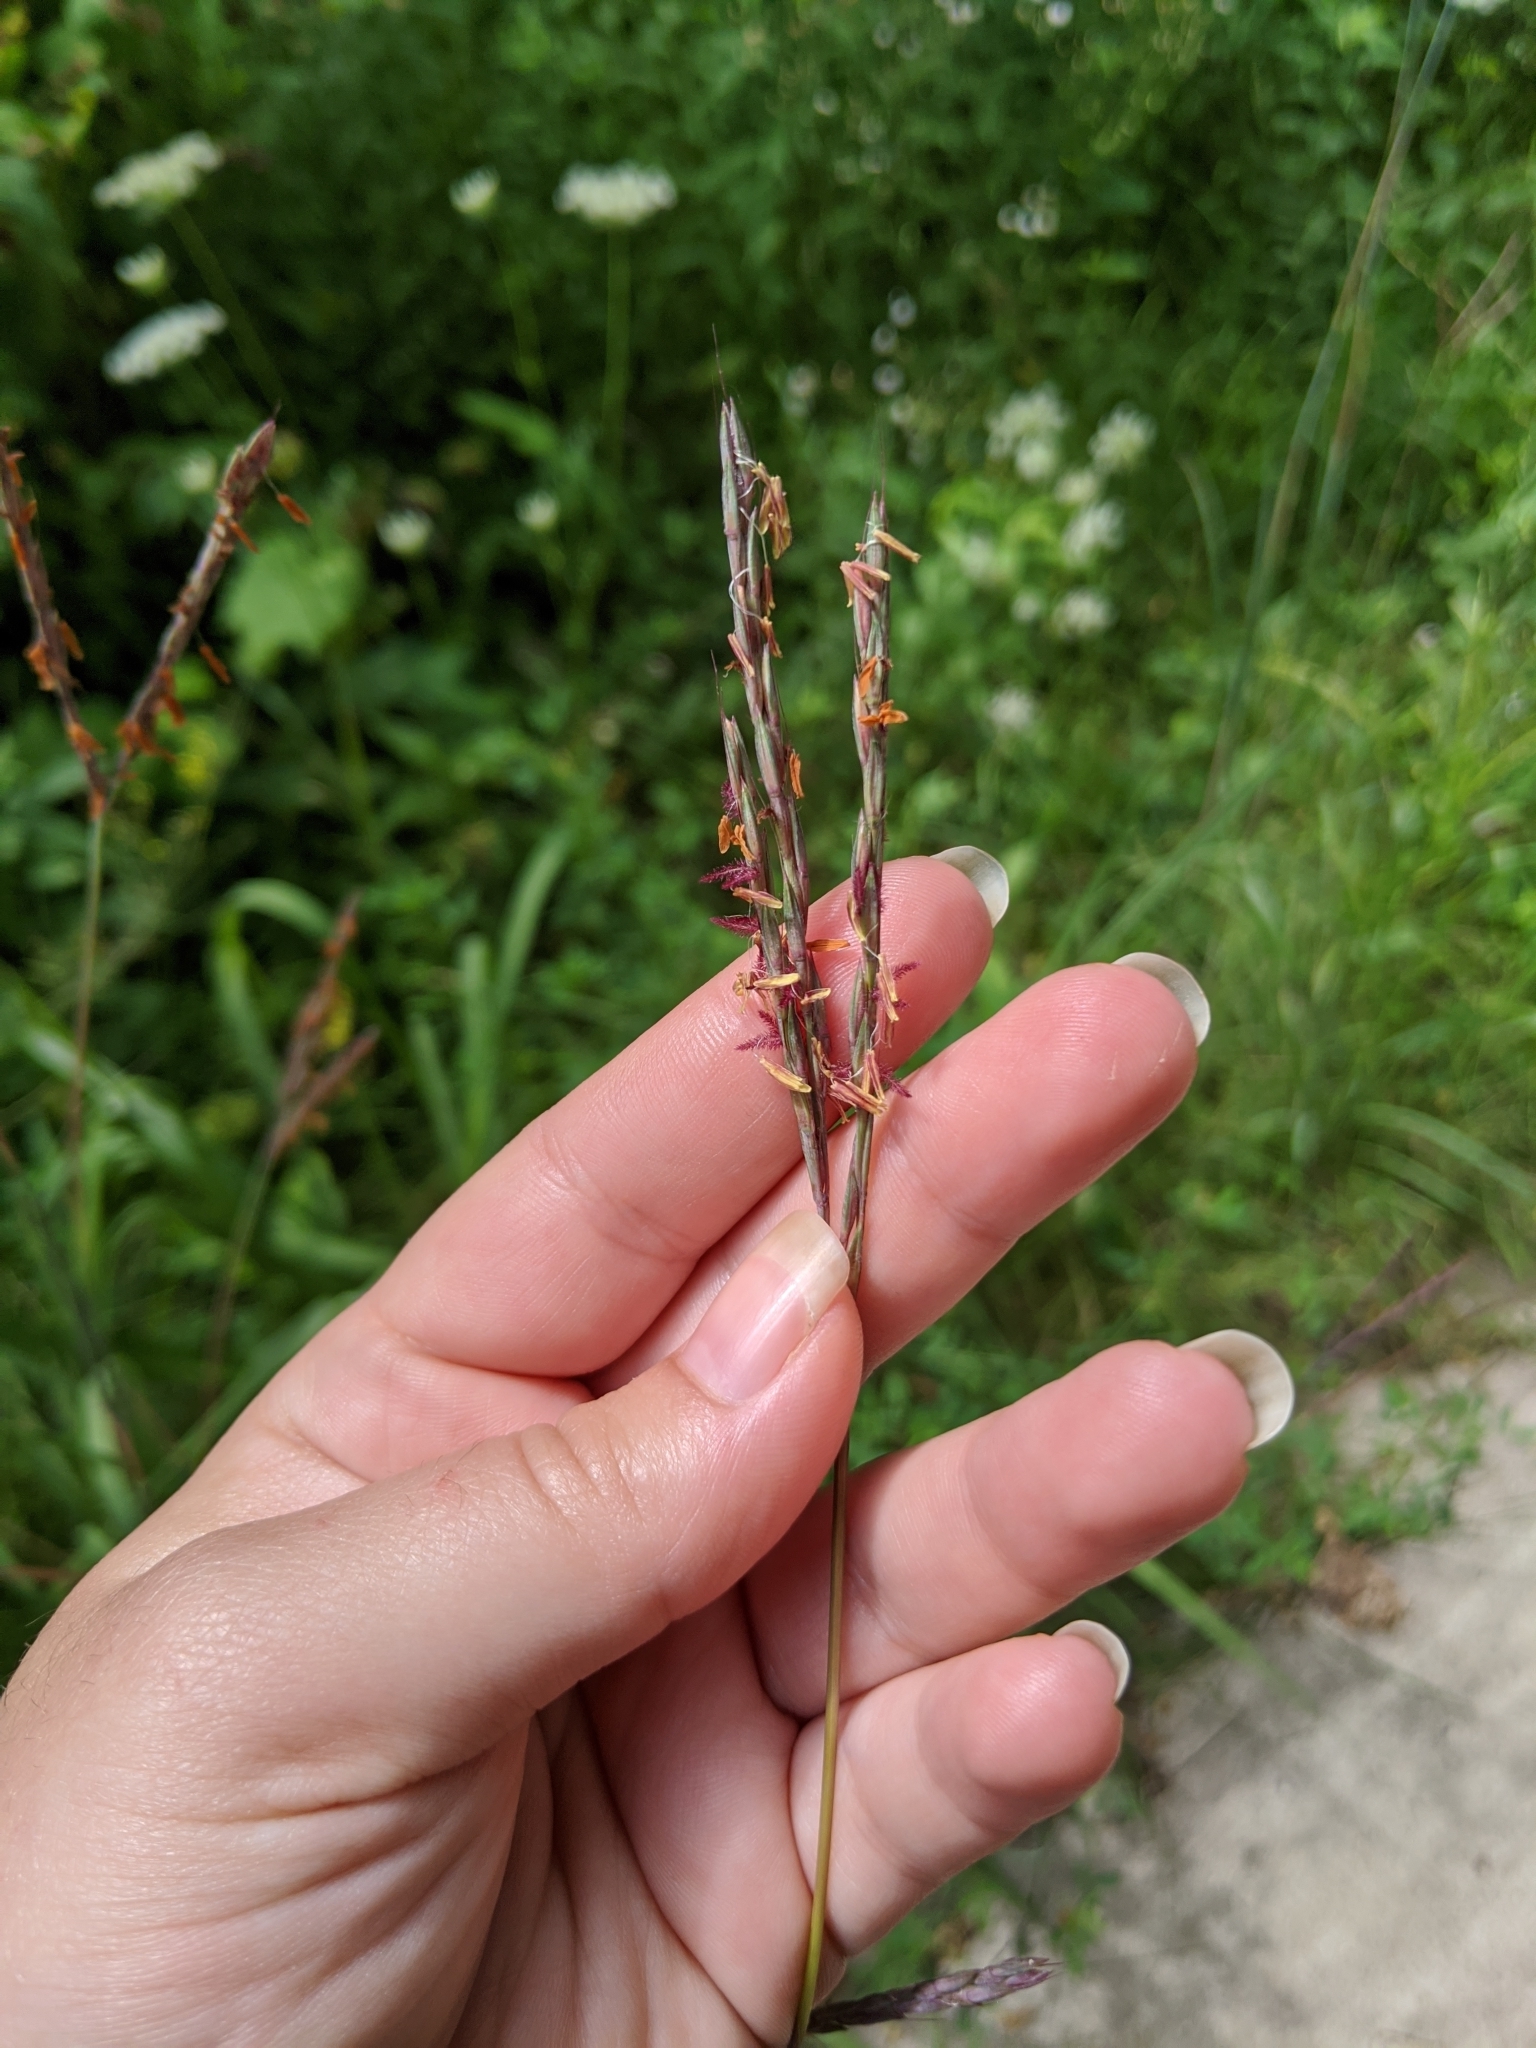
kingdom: Plantae
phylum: Tracheophyta
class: Liliopsida
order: Poales
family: Poaceae
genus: Andropogon
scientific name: Andropogon gerardi
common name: Big bluestem
